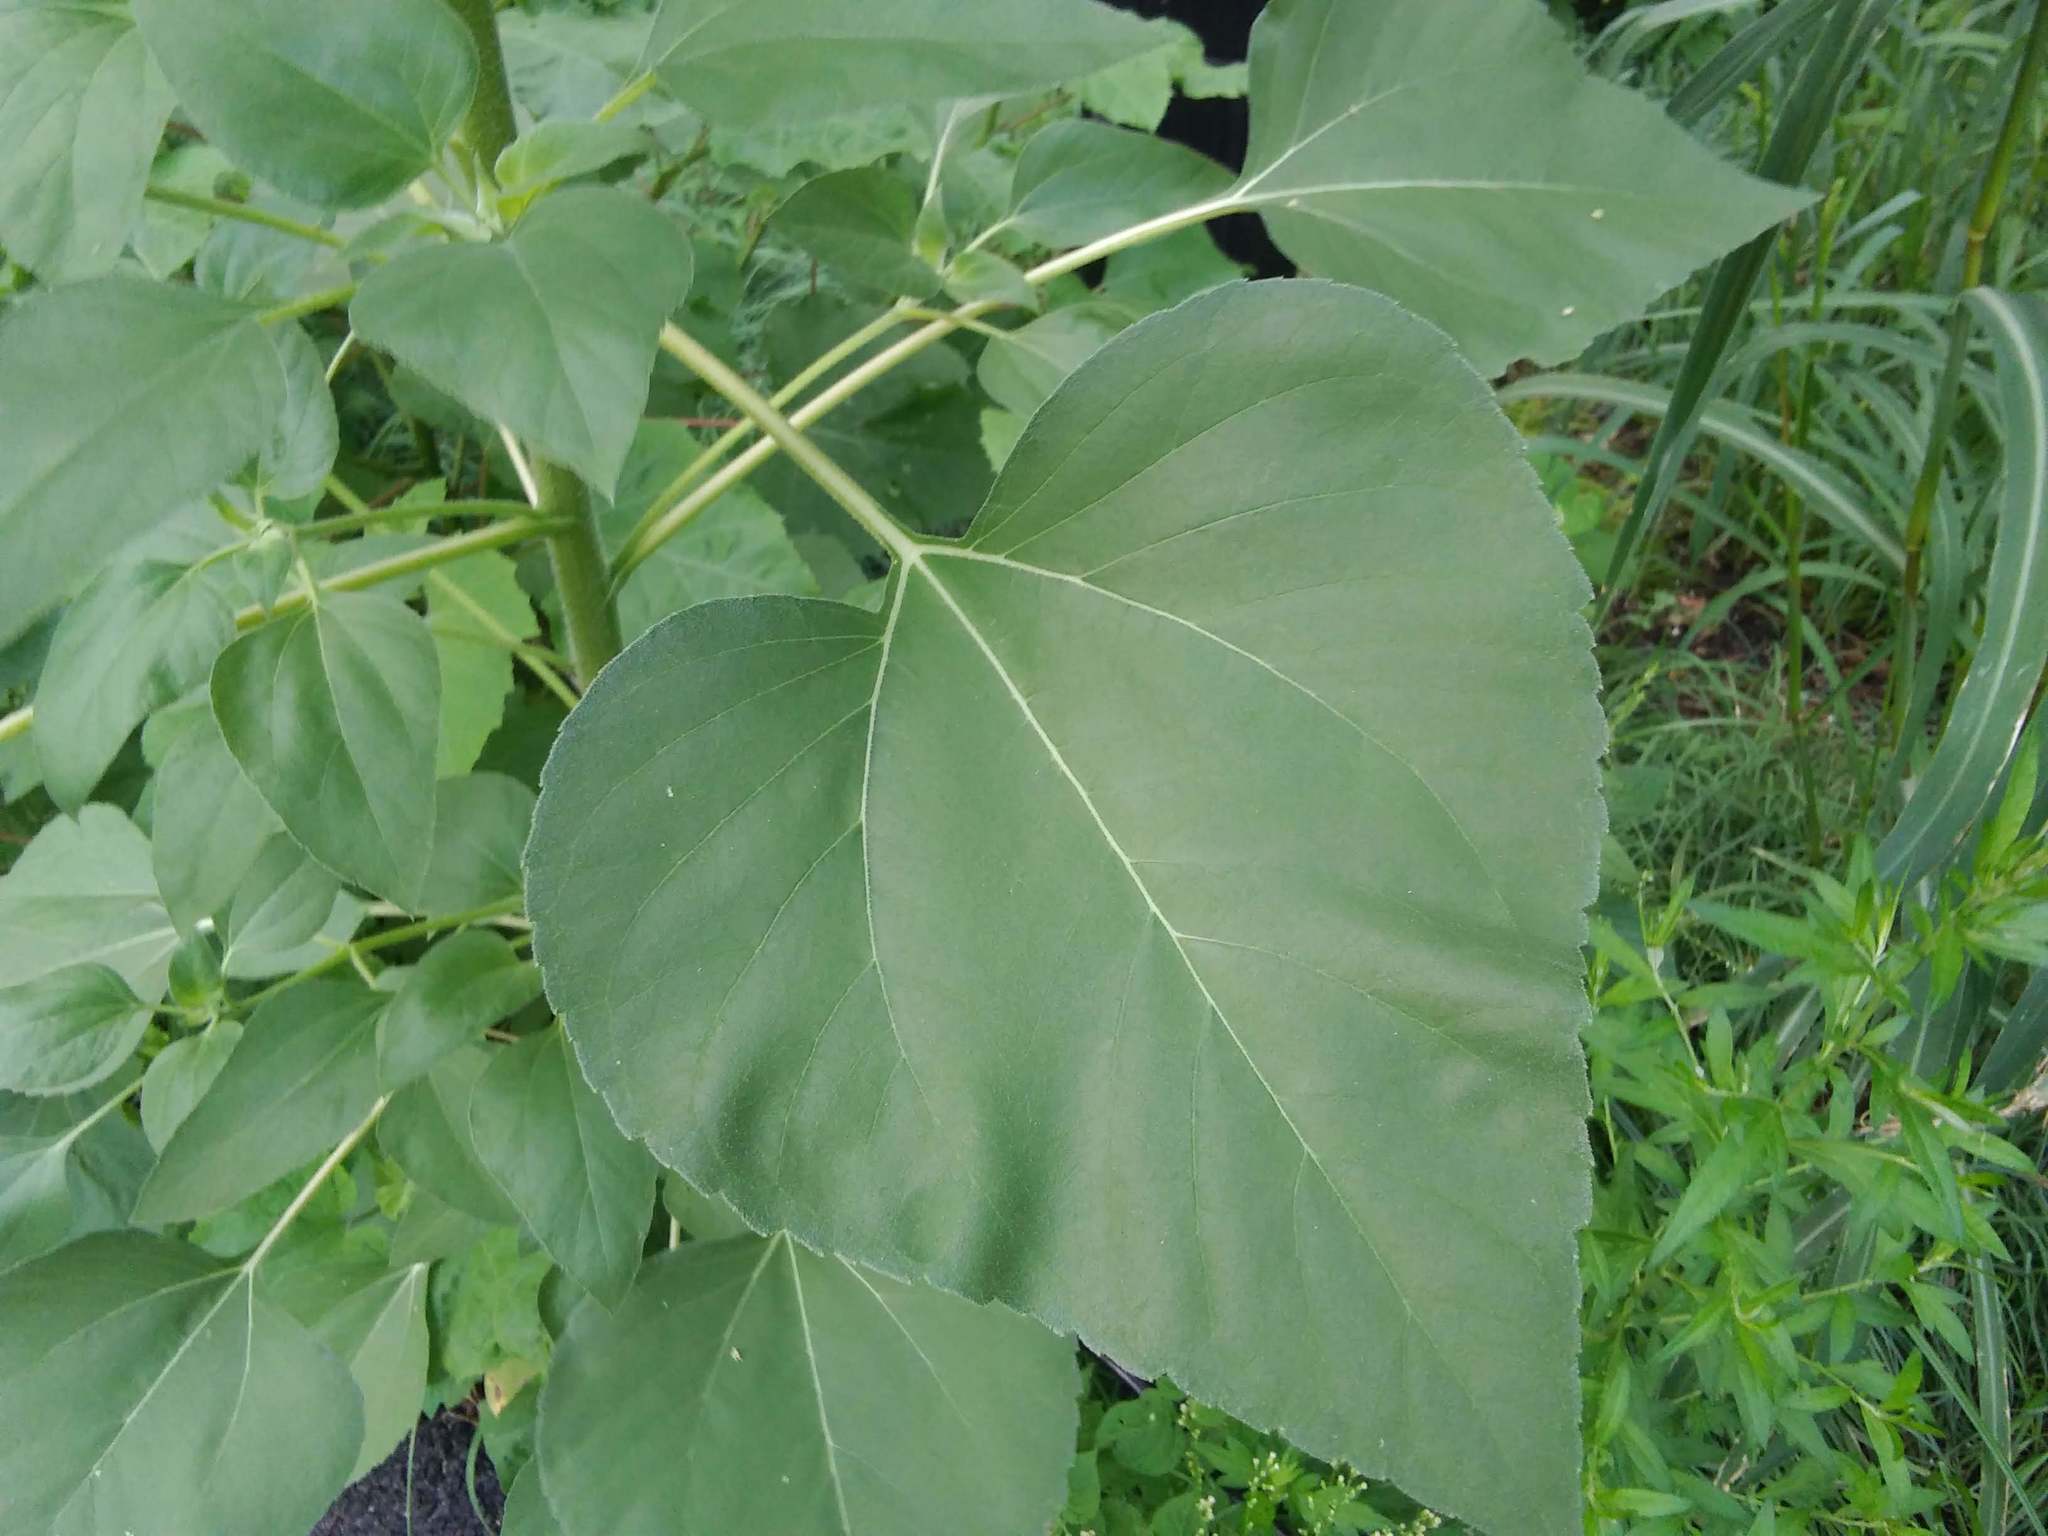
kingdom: Plantae
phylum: Tracheophyta
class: Magnoliopsida
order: Asterales
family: Asteraceae
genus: Helianthus
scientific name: Helianthus annuus
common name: Sunflower
